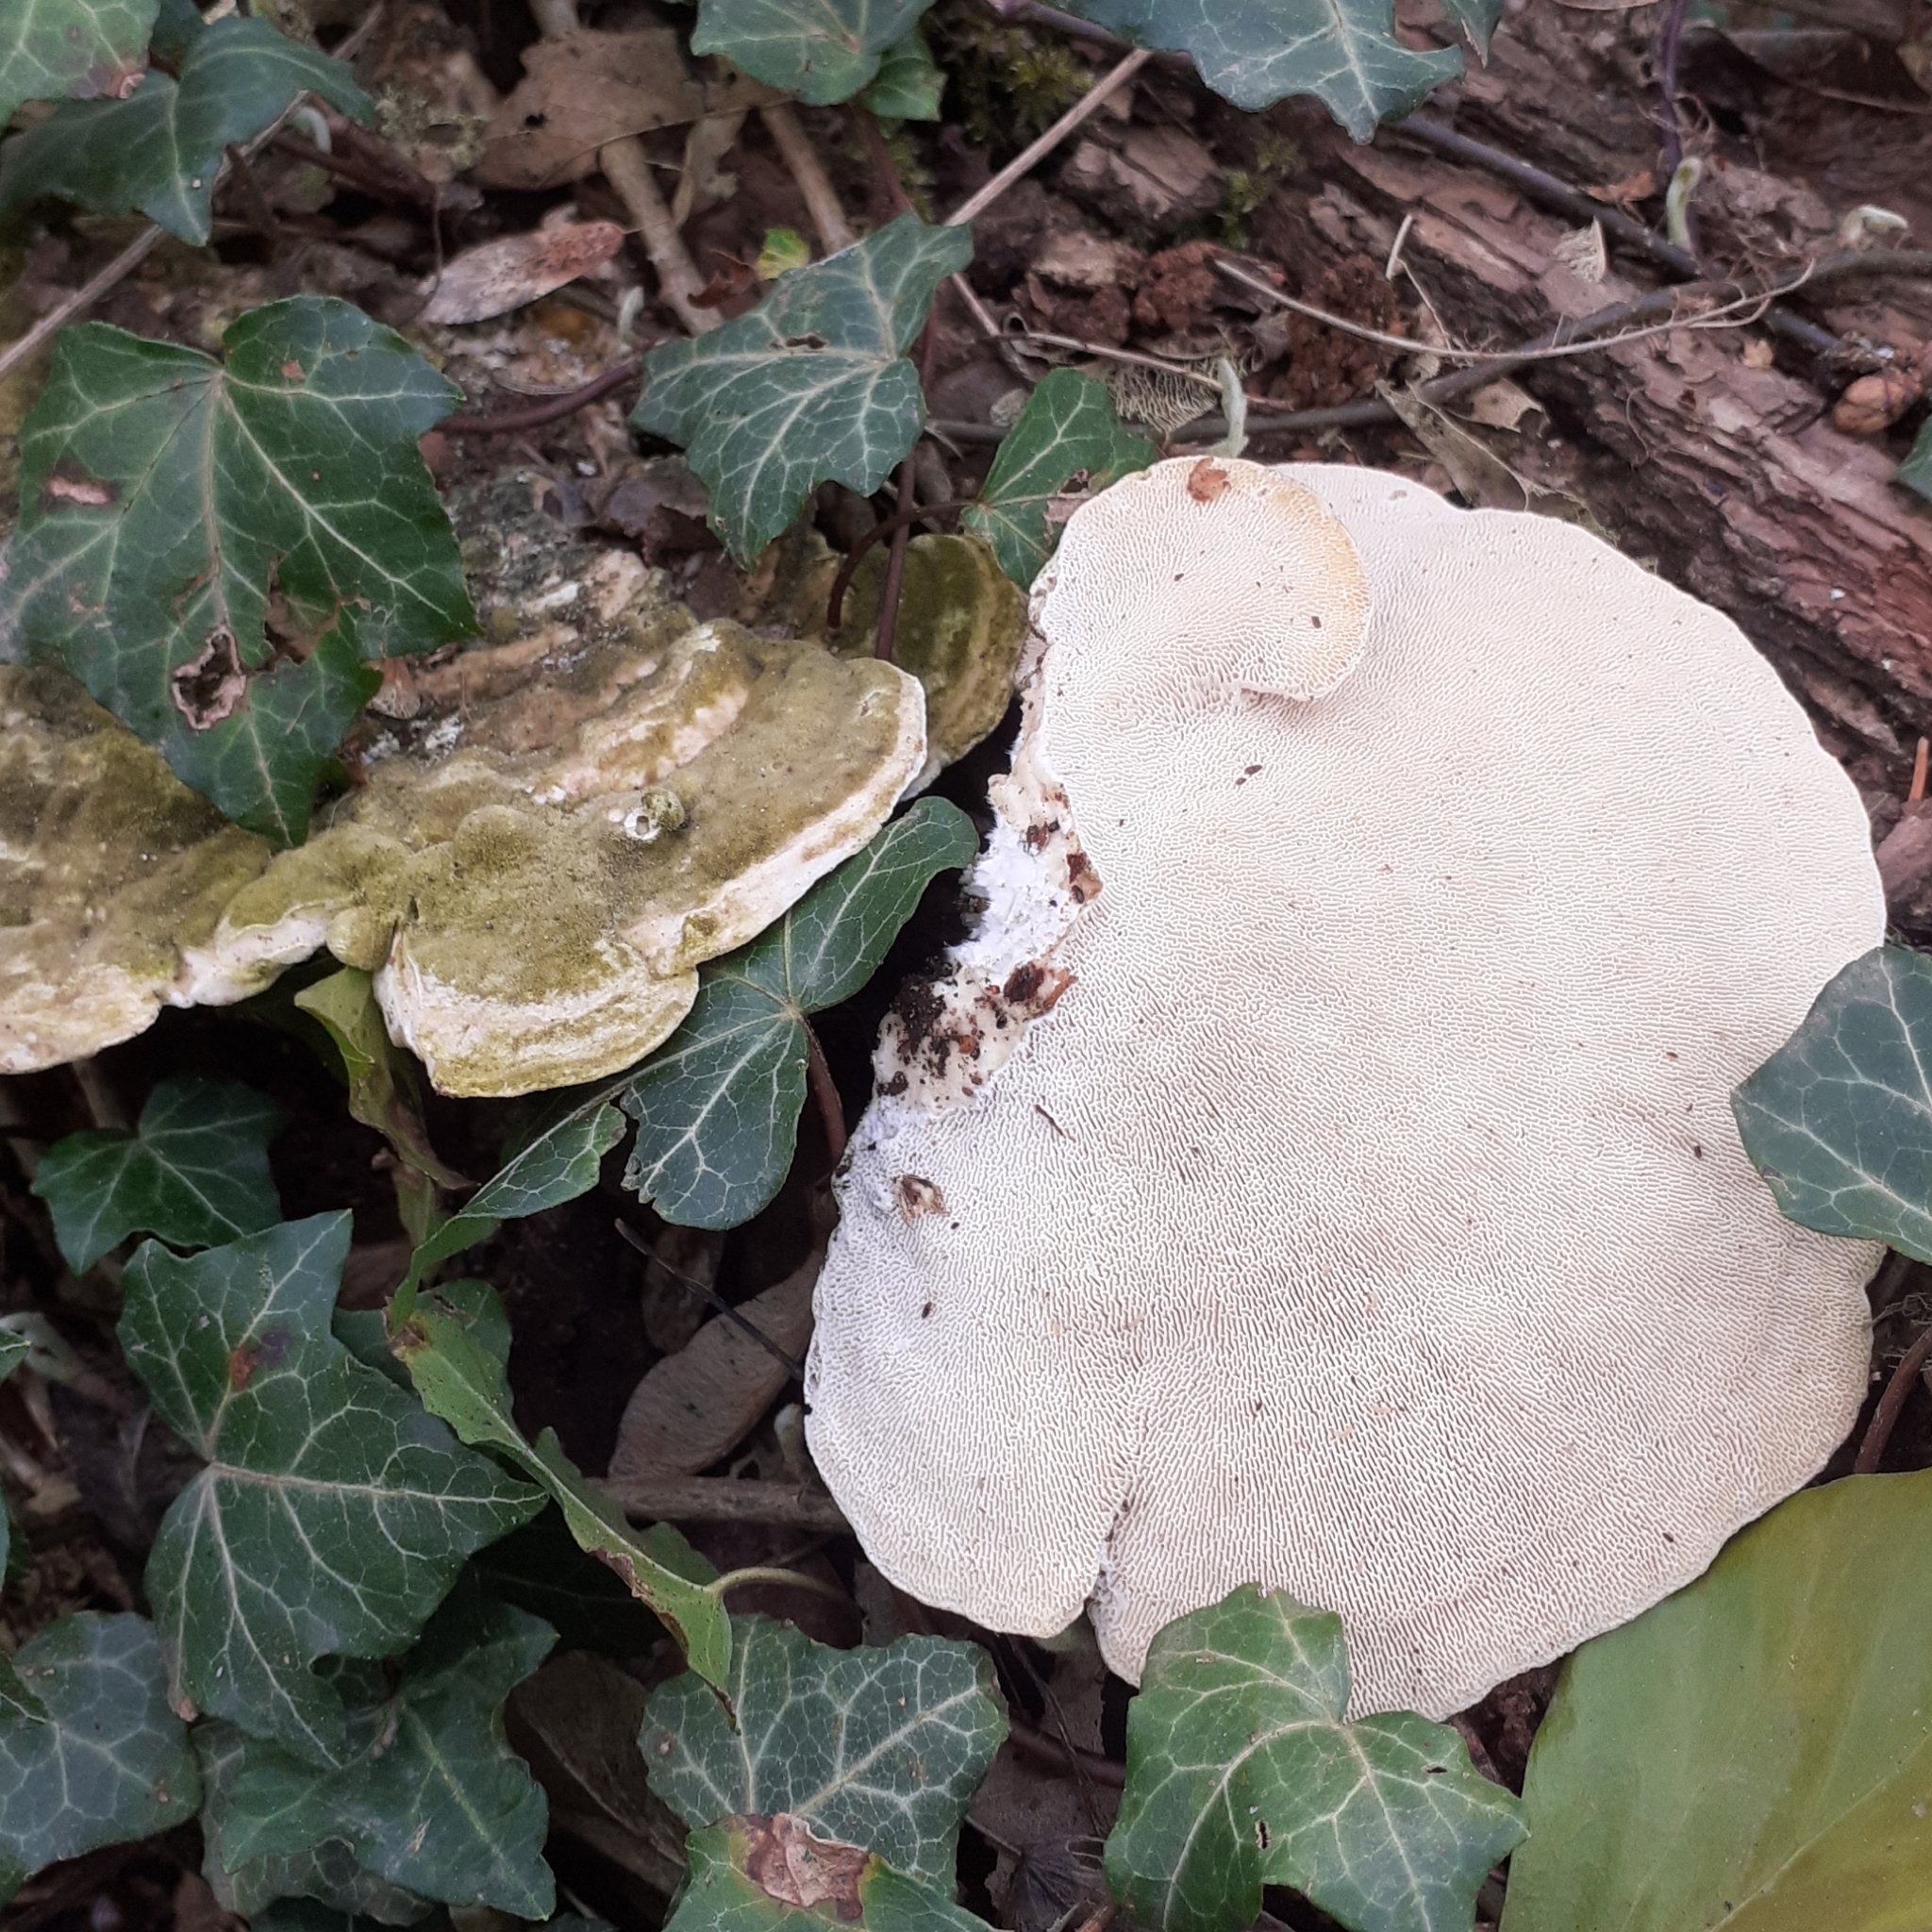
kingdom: Fungi
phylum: Basidiomycota
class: Agaricomycetes
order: Polyporales
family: Polyporaceae
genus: Trametes
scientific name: Trametes gibbosa
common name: Lumpy bracket
